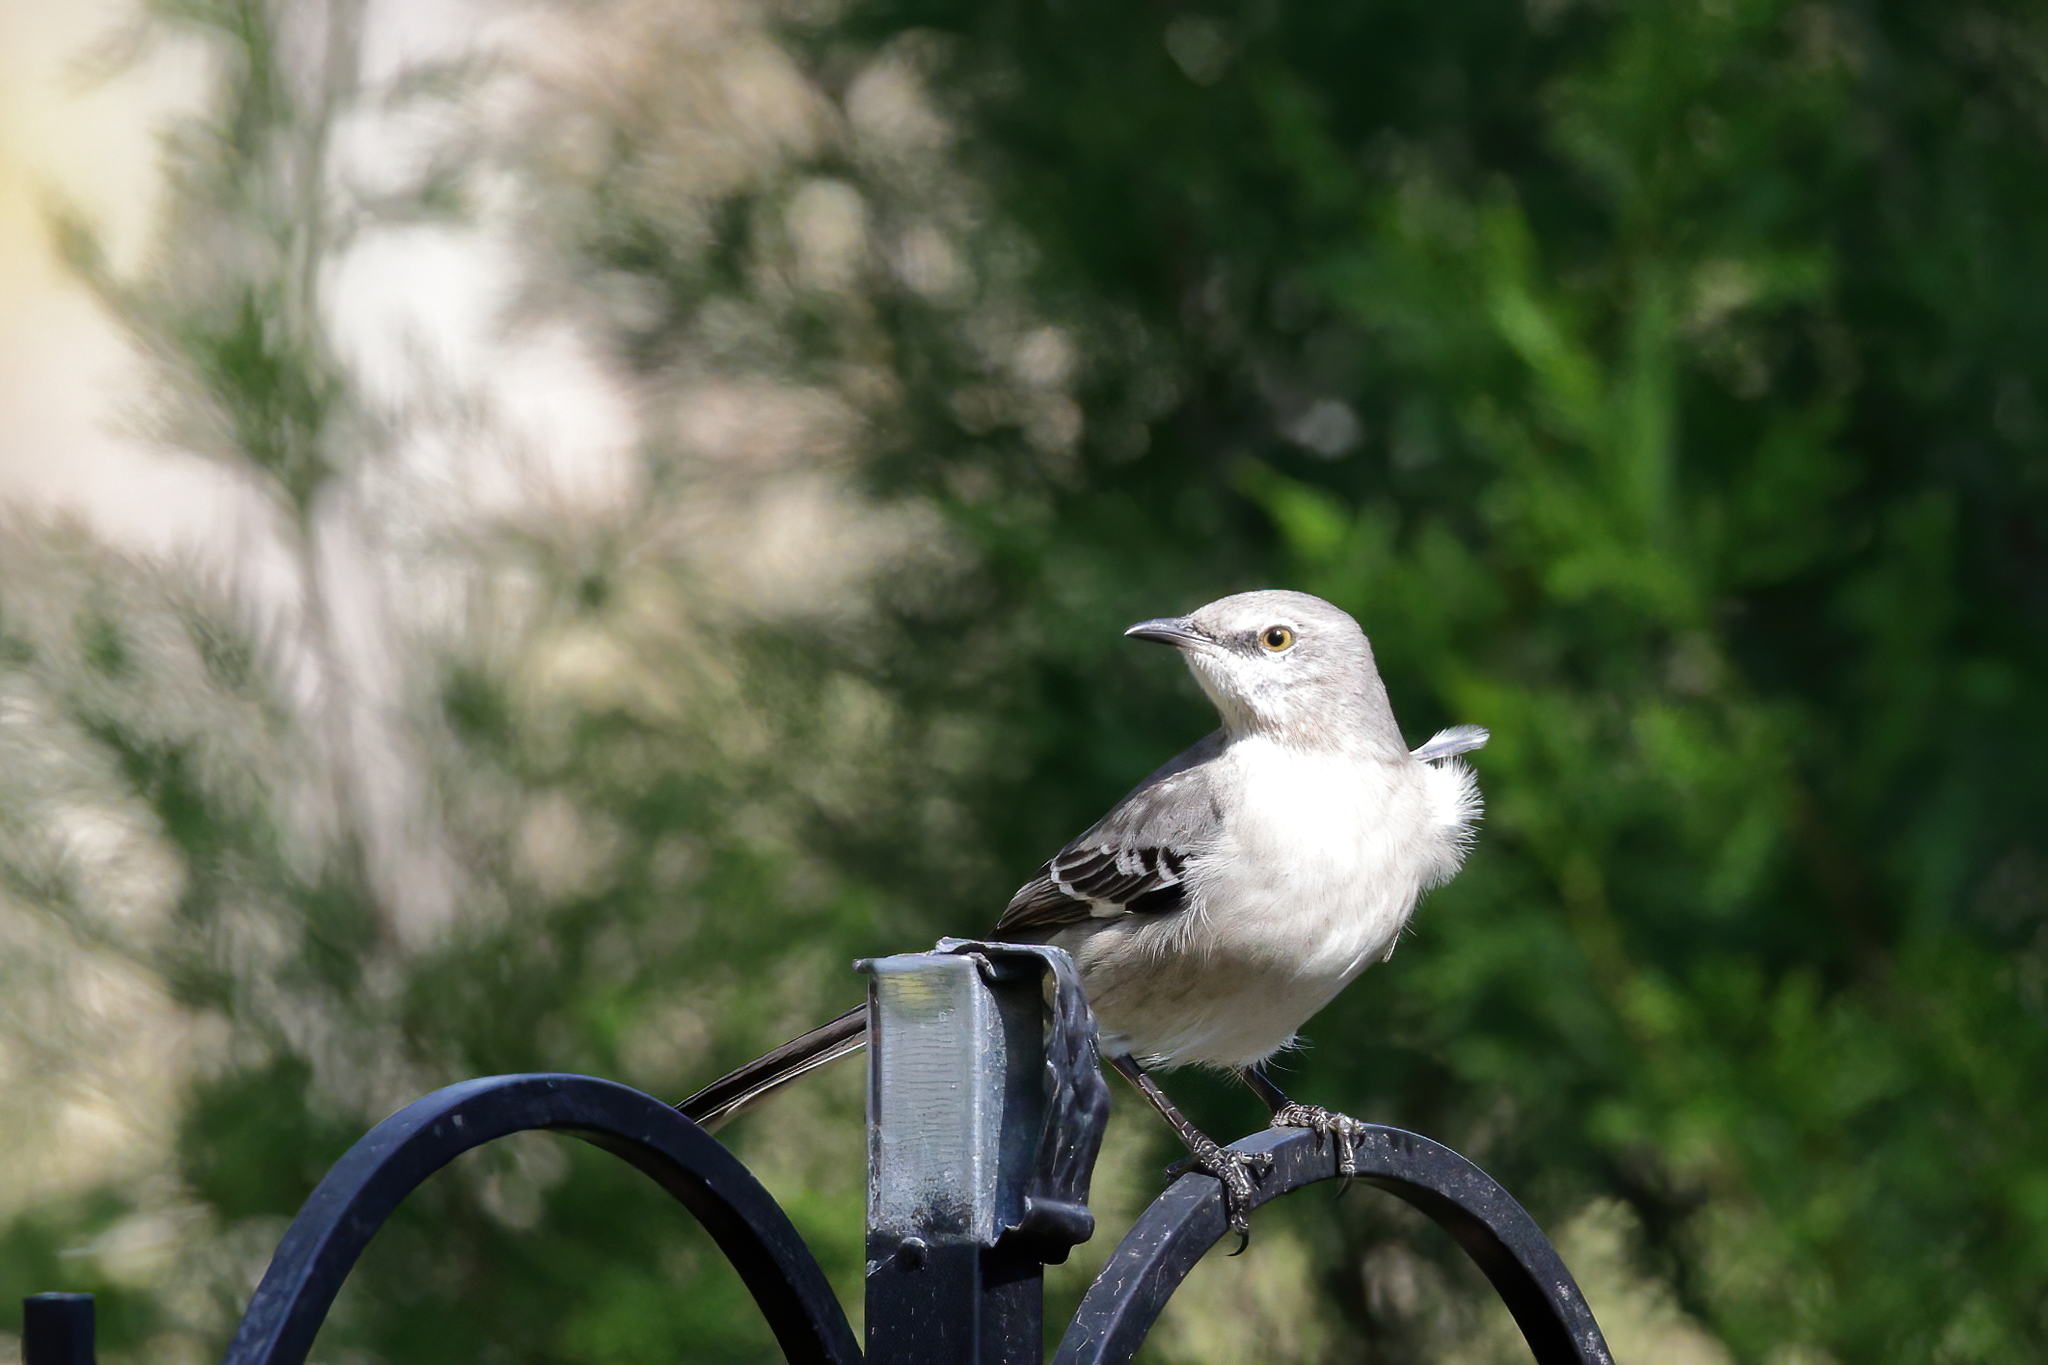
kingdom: Animalia
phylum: Chordata
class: Aves
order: Passeriformes
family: Mimidae
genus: Mimus
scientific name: Mimus polyglottos
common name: Northern mockingbird
